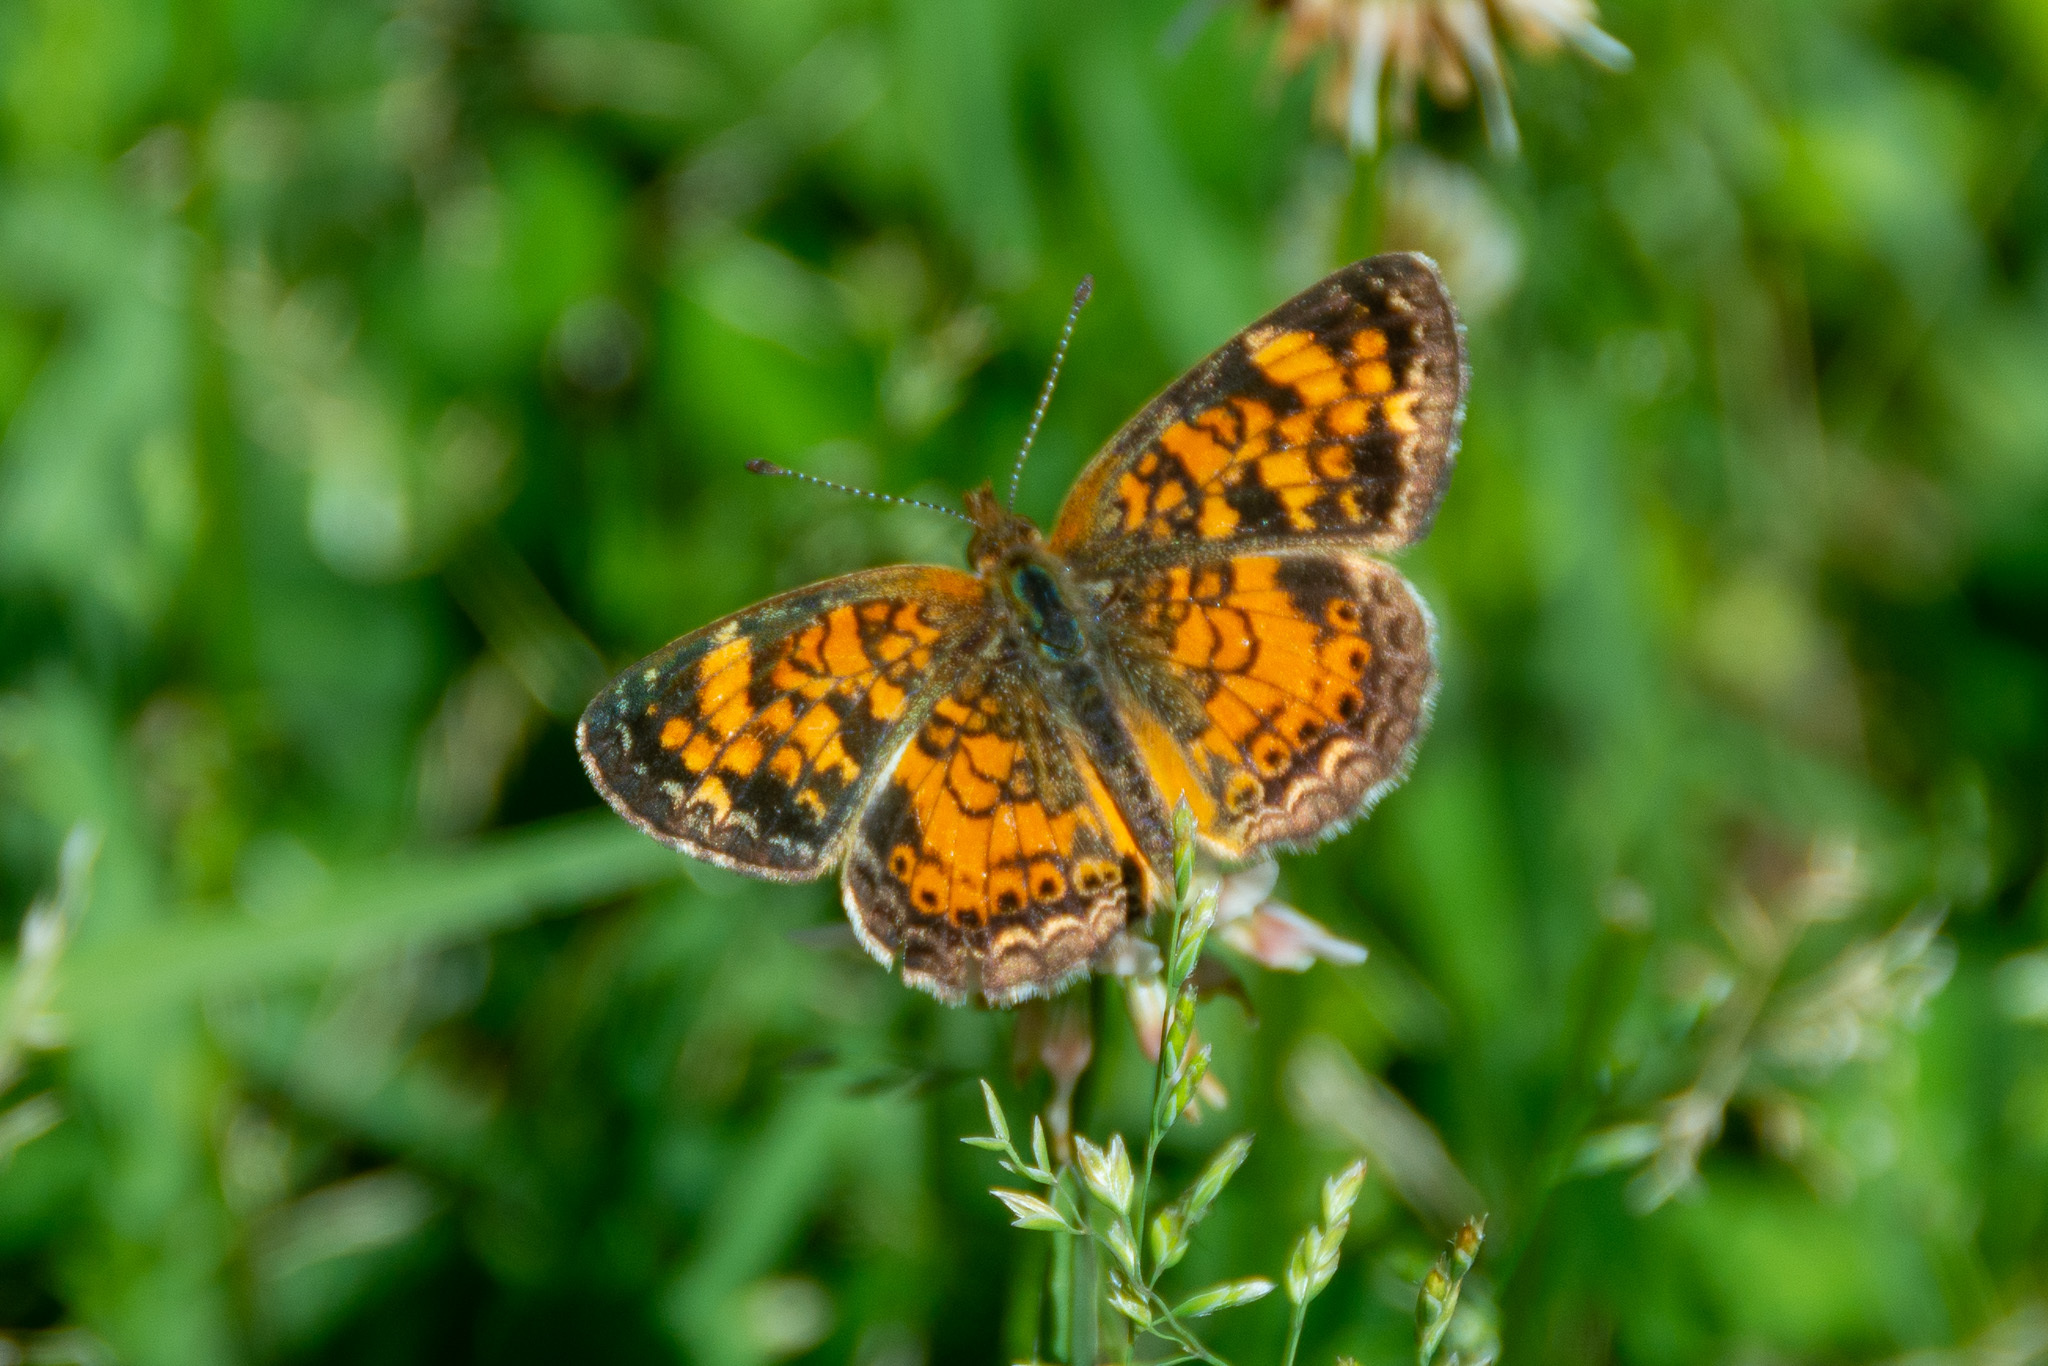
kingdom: Animalia
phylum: Arthropoda
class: Insecta
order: Lepidoptera
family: Nymphalidae
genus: Phyciodes
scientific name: Phyciodes tharos
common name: Pearl crescent
